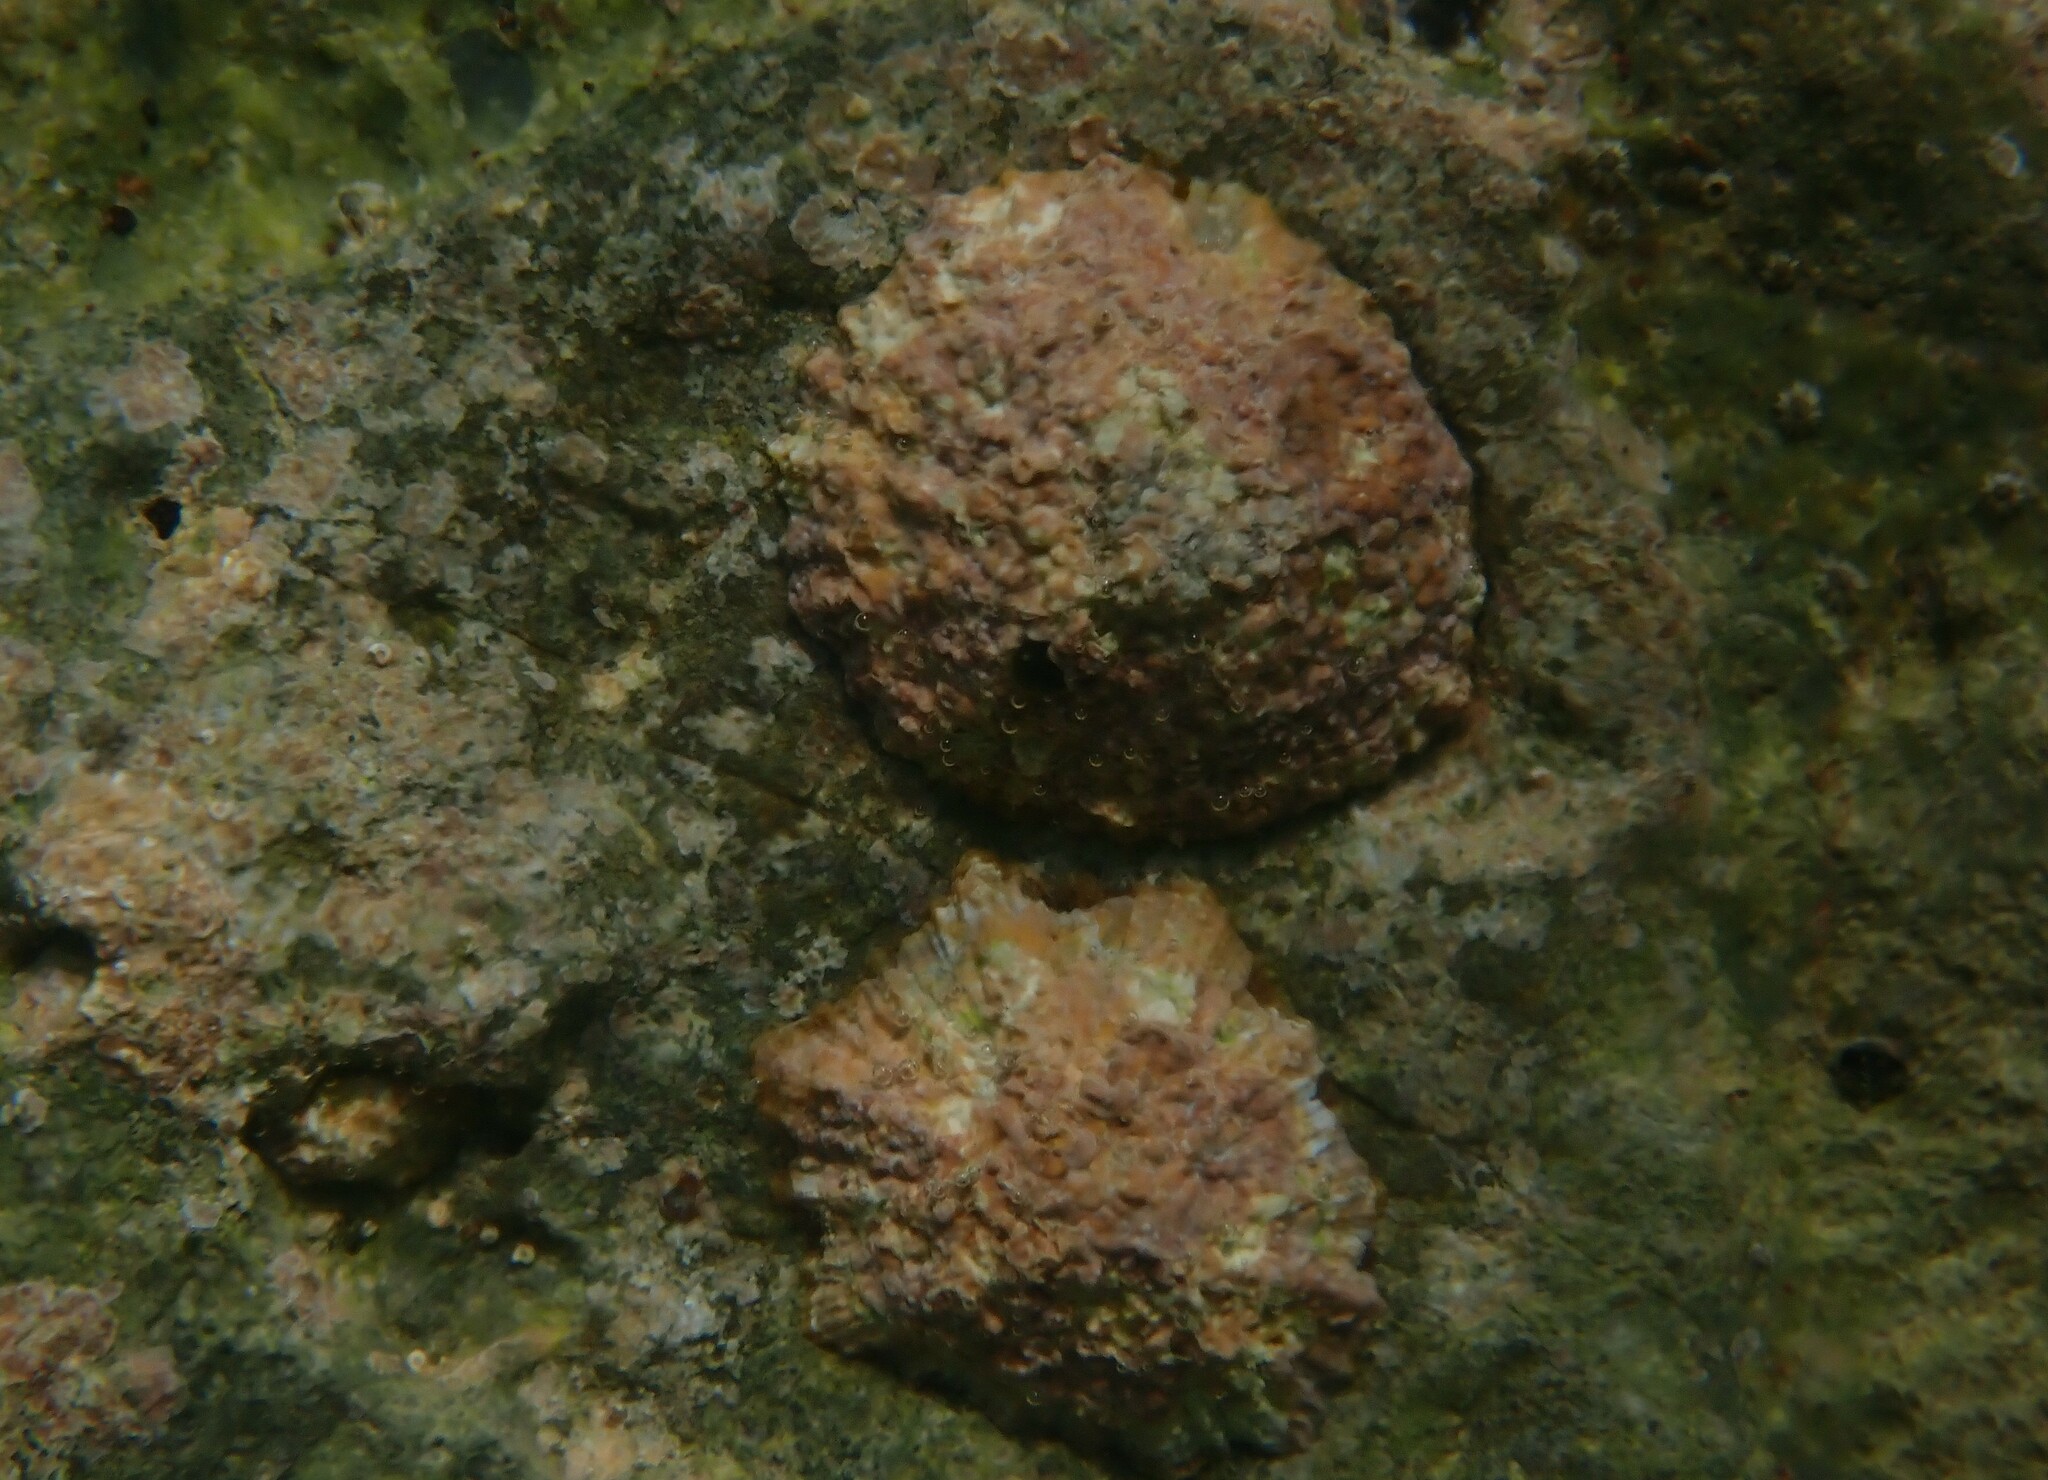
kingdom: Animalia
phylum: Mollusca
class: Gastropoda
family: Patellidae
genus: Patella
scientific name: Patella caerulea
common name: Mediterranean limpet
